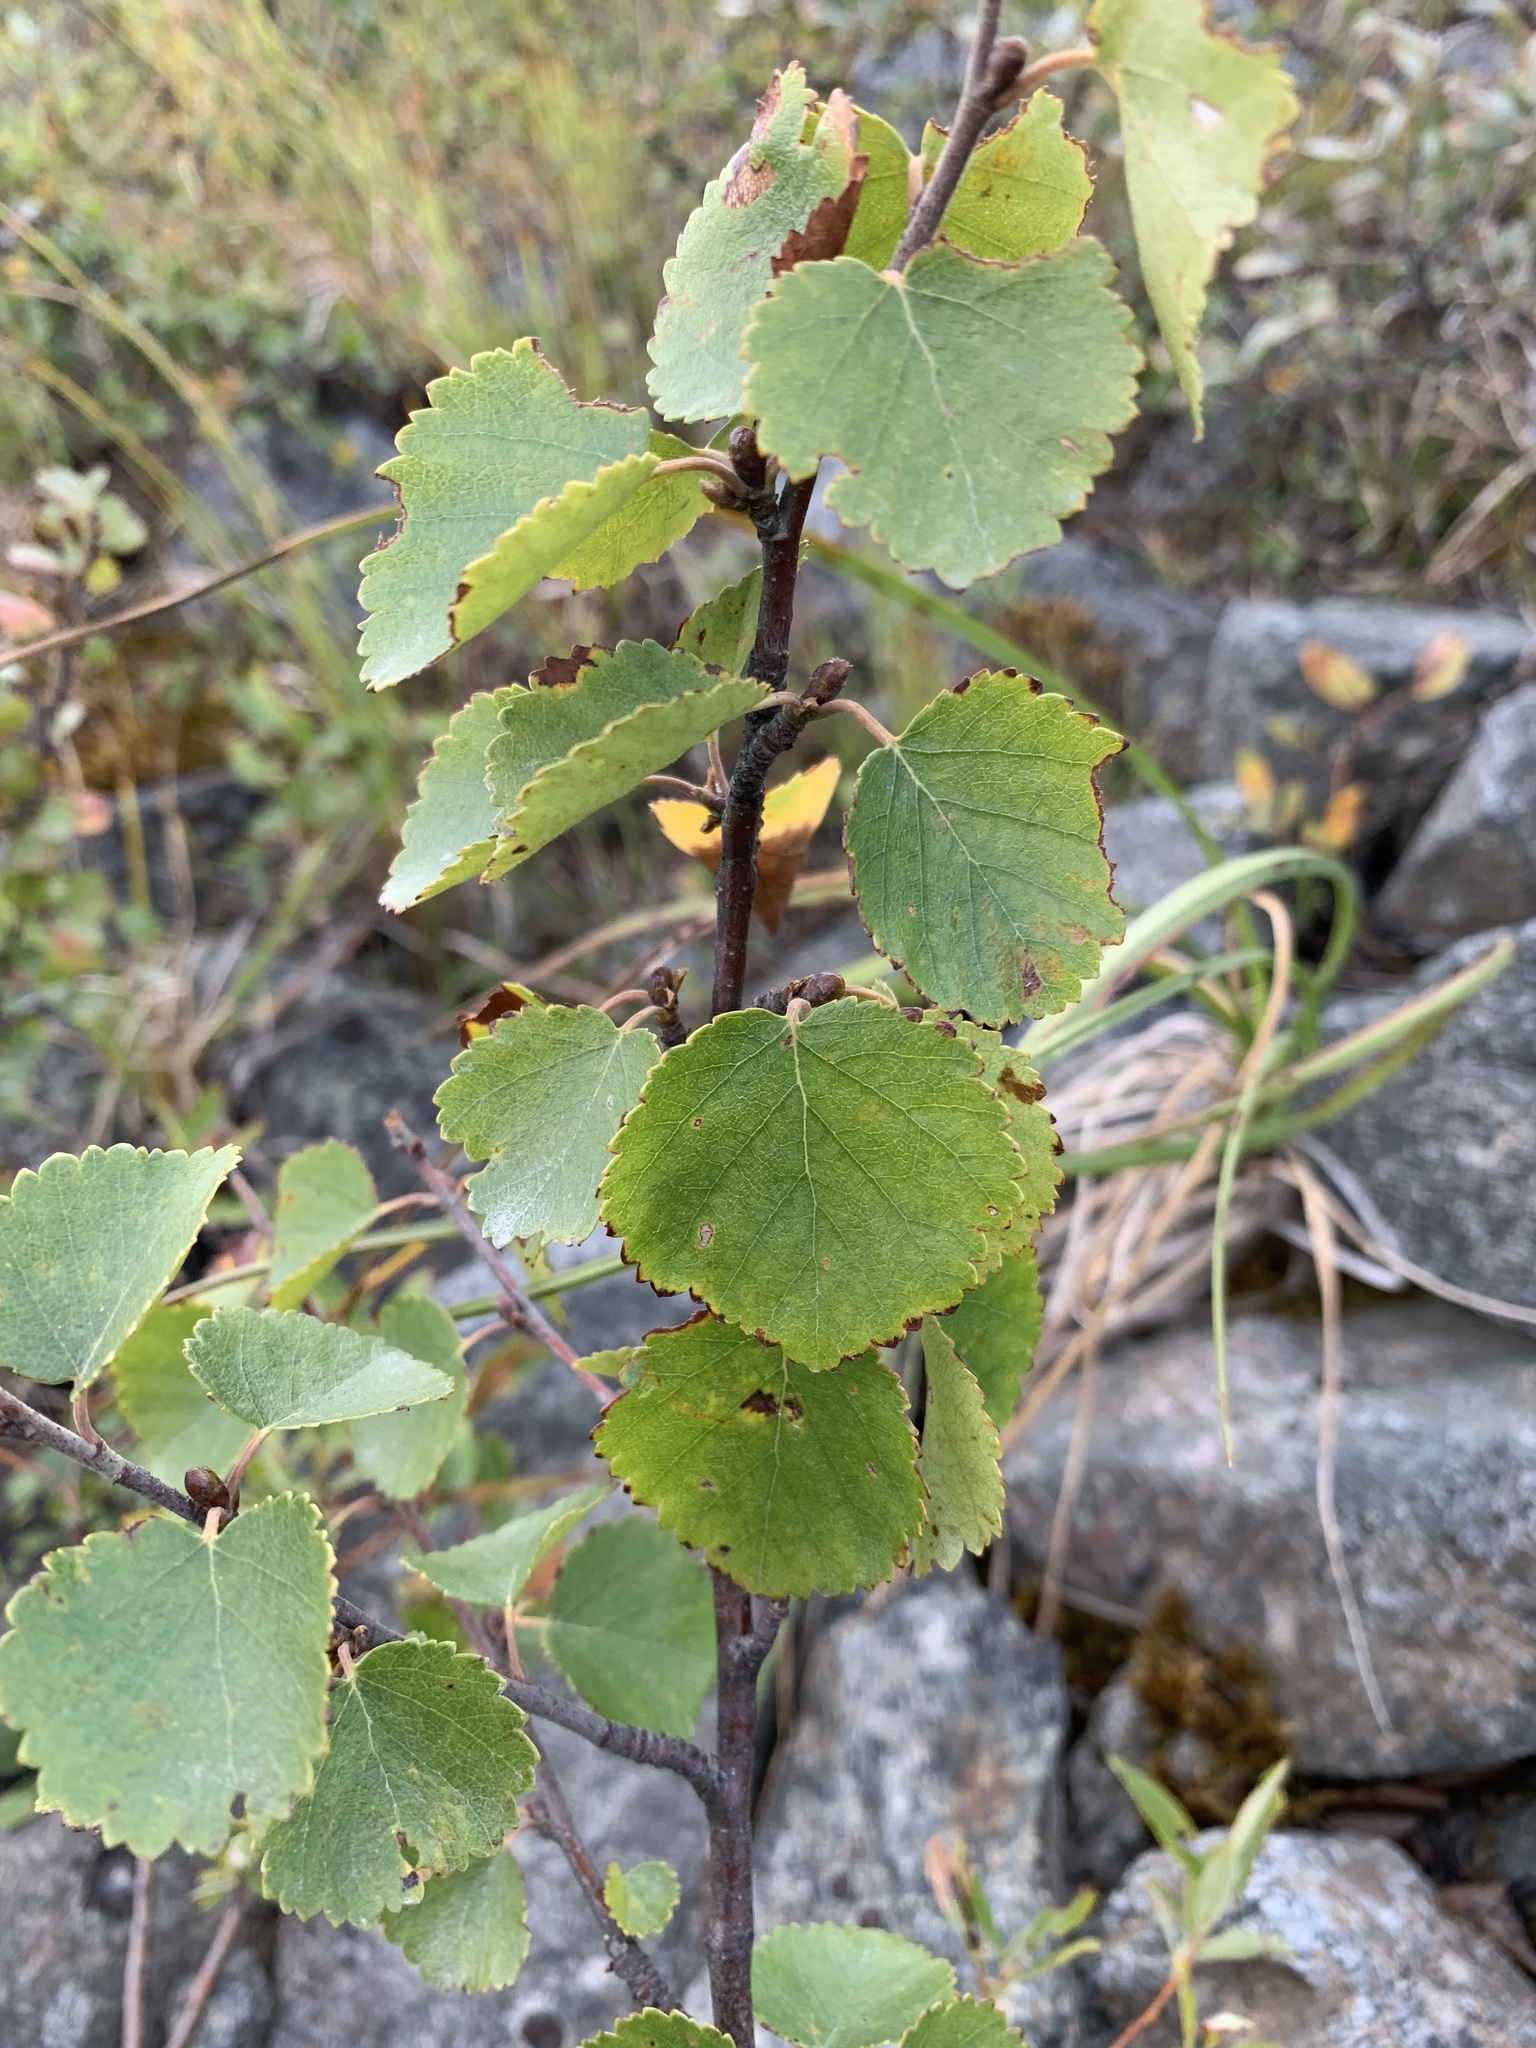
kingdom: Plantae
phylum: Tracheophyta
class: Magnoliopsida
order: Fagales
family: Betulaceae
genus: Betula
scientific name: Betula pubescens
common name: Downy birch
